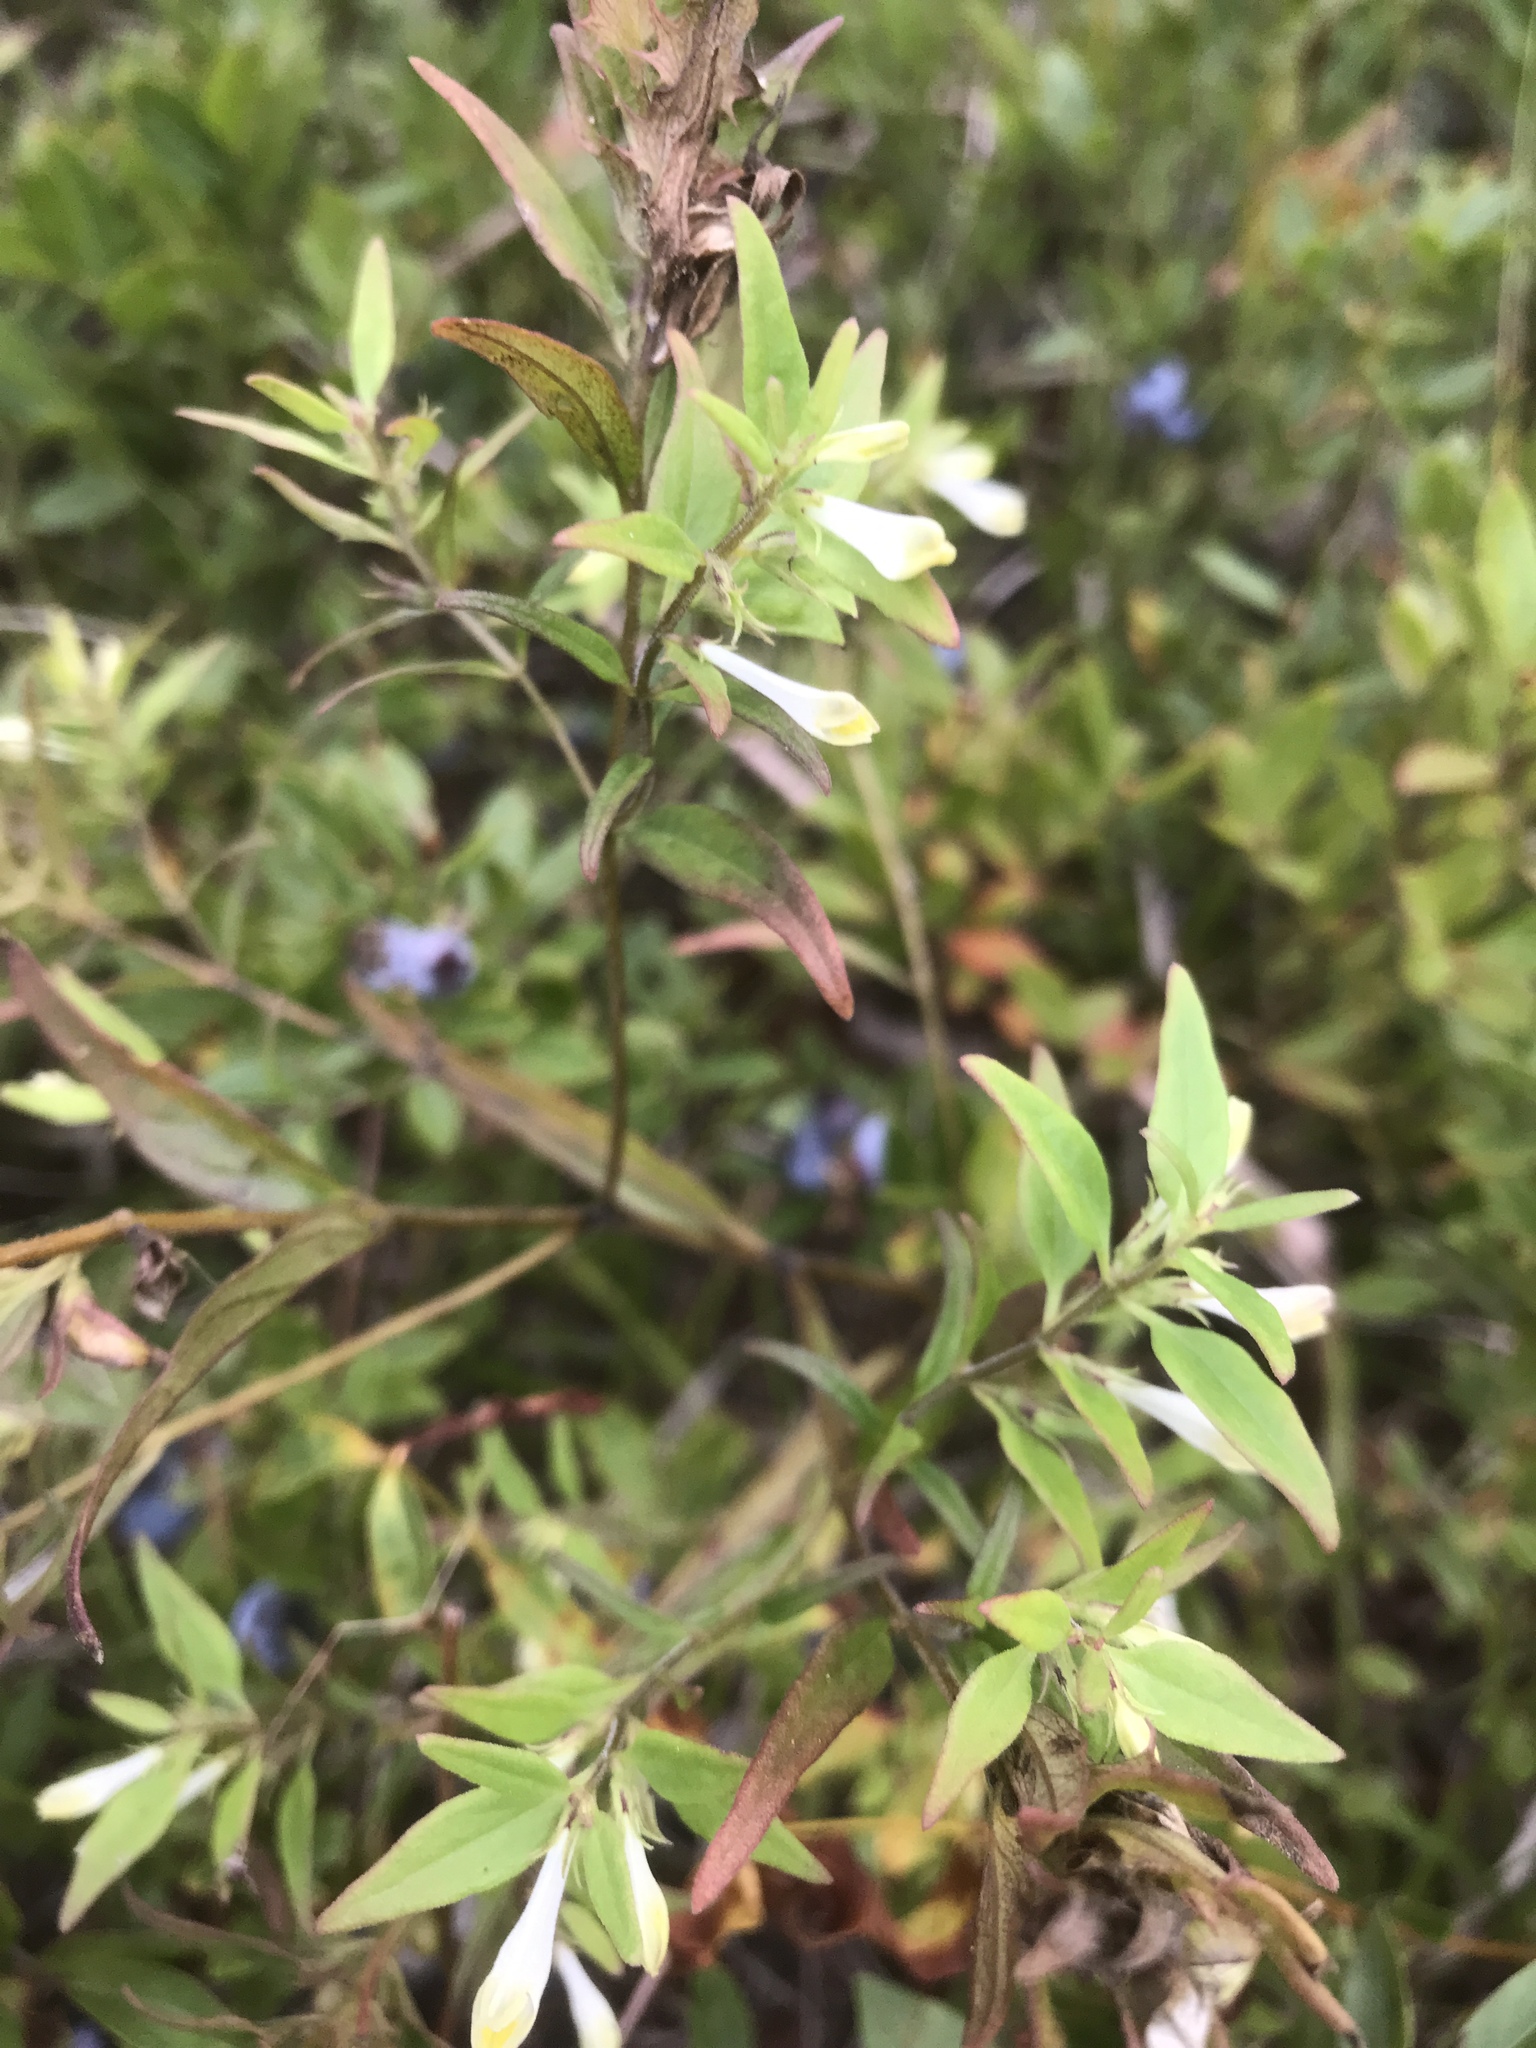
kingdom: Plantae
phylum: Tracheophyta
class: Magnoliopsida
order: Lamiales
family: Orobanchaceae
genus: Melampyrum
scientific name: Melampyrum lineare
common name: American cow-wheat
